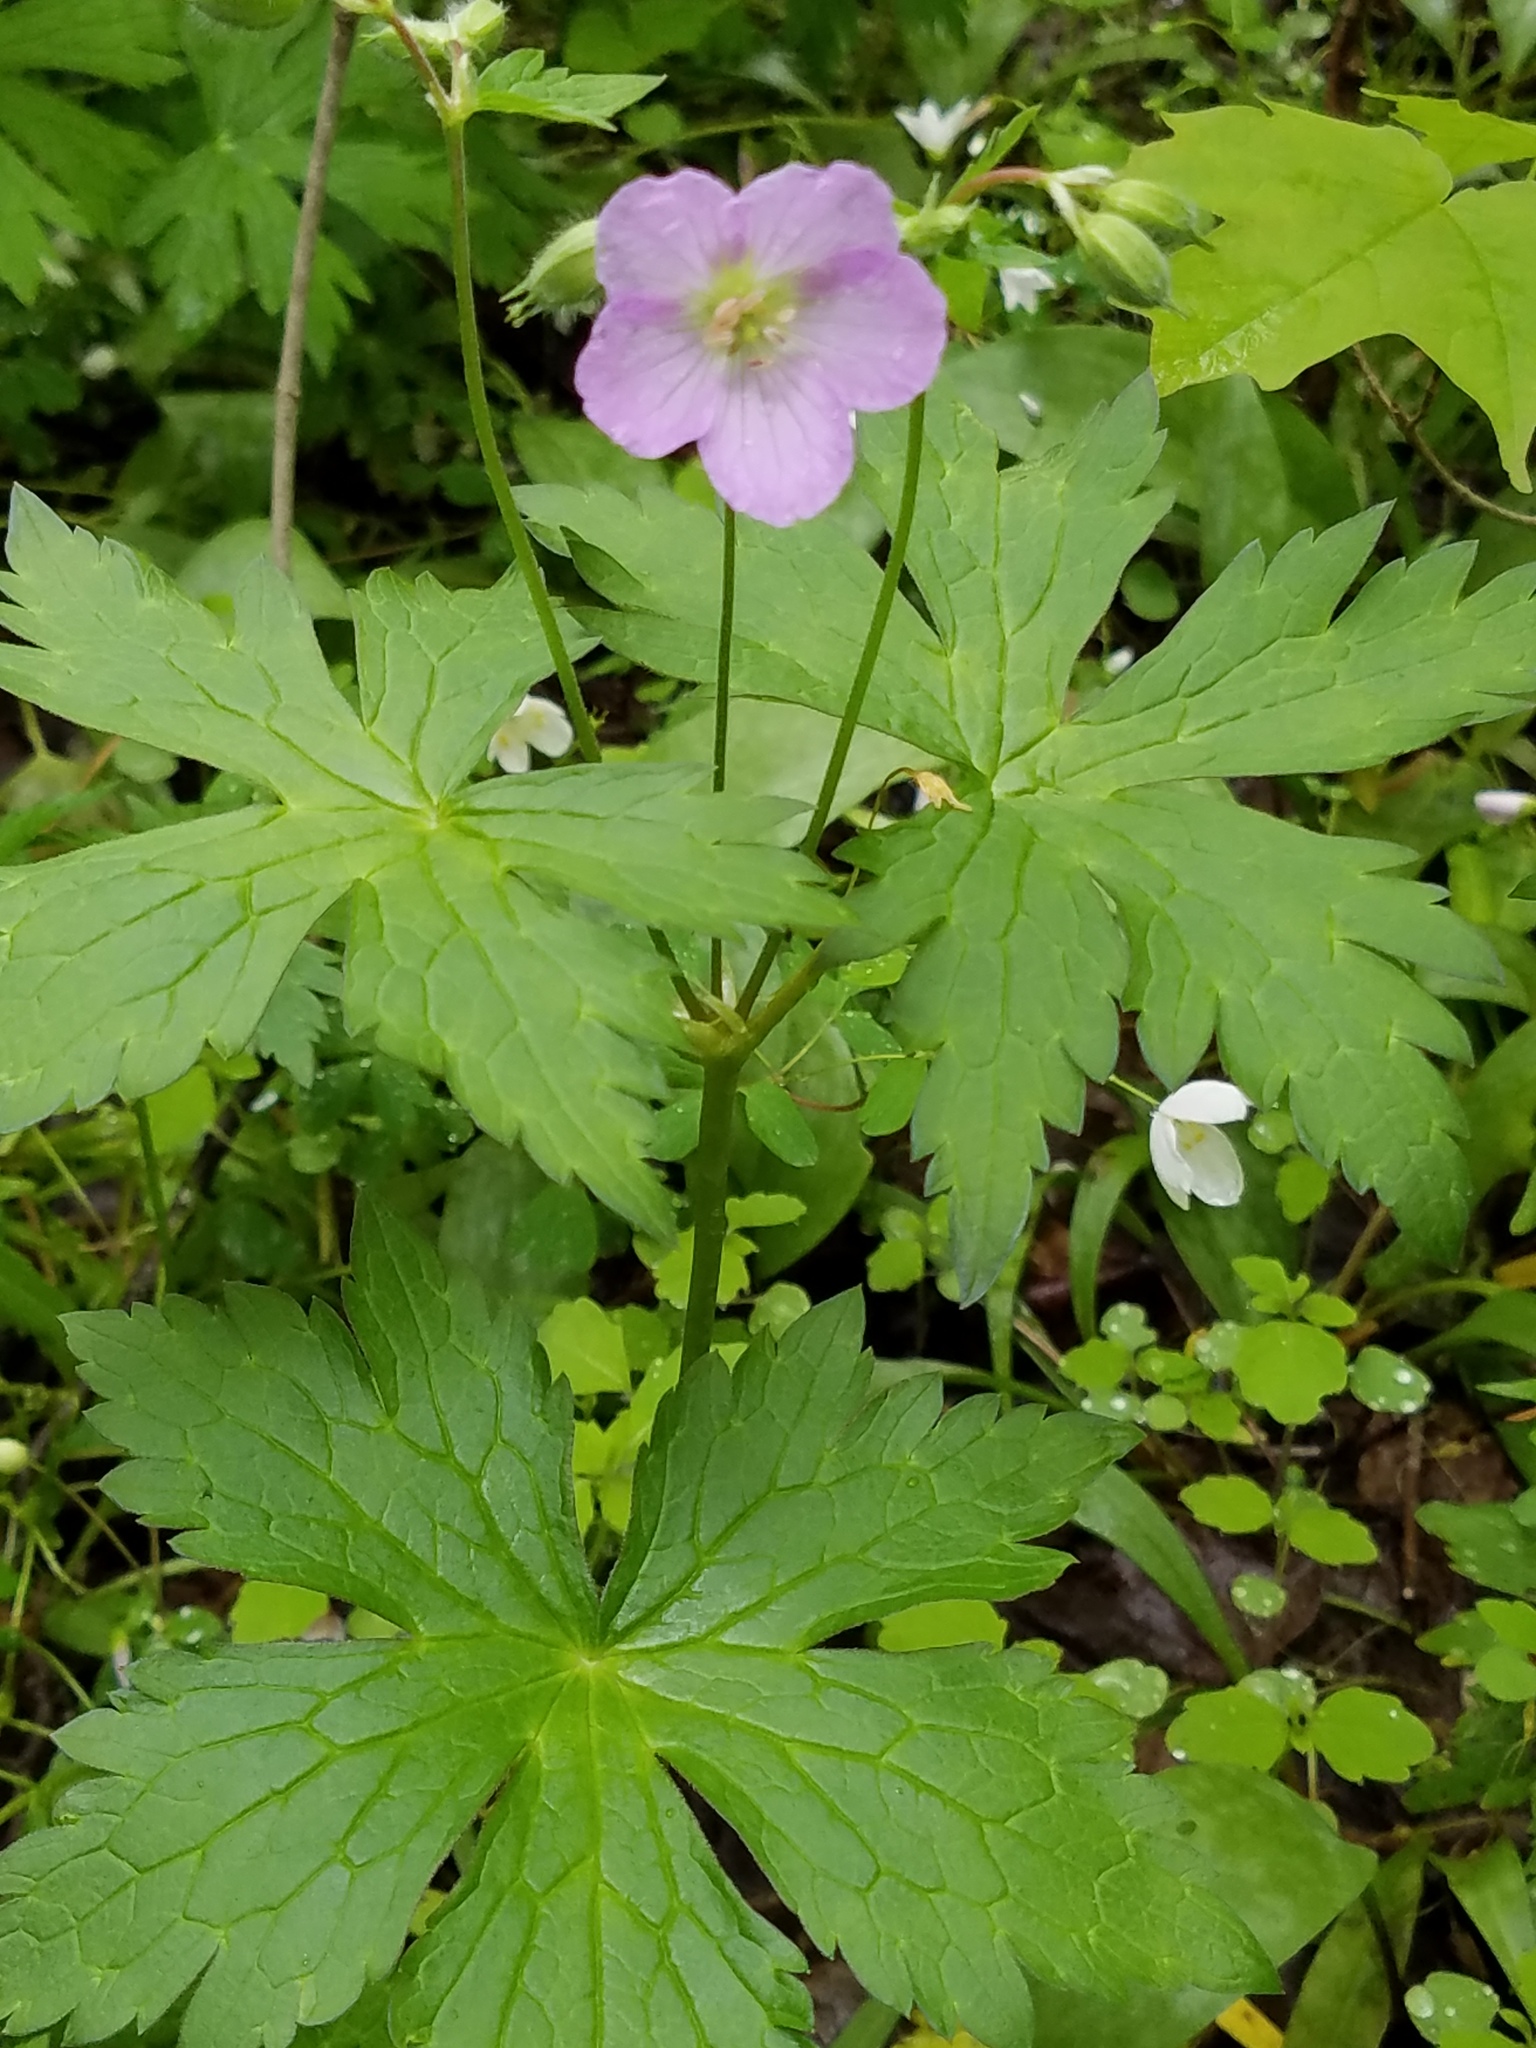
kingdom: Plantae
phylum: Tracheophyta
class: Magnoliopsida
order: Geraniales
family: Geraniaceae
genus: Geranium
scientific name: Geranium maculatum
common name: Spotted geranium
